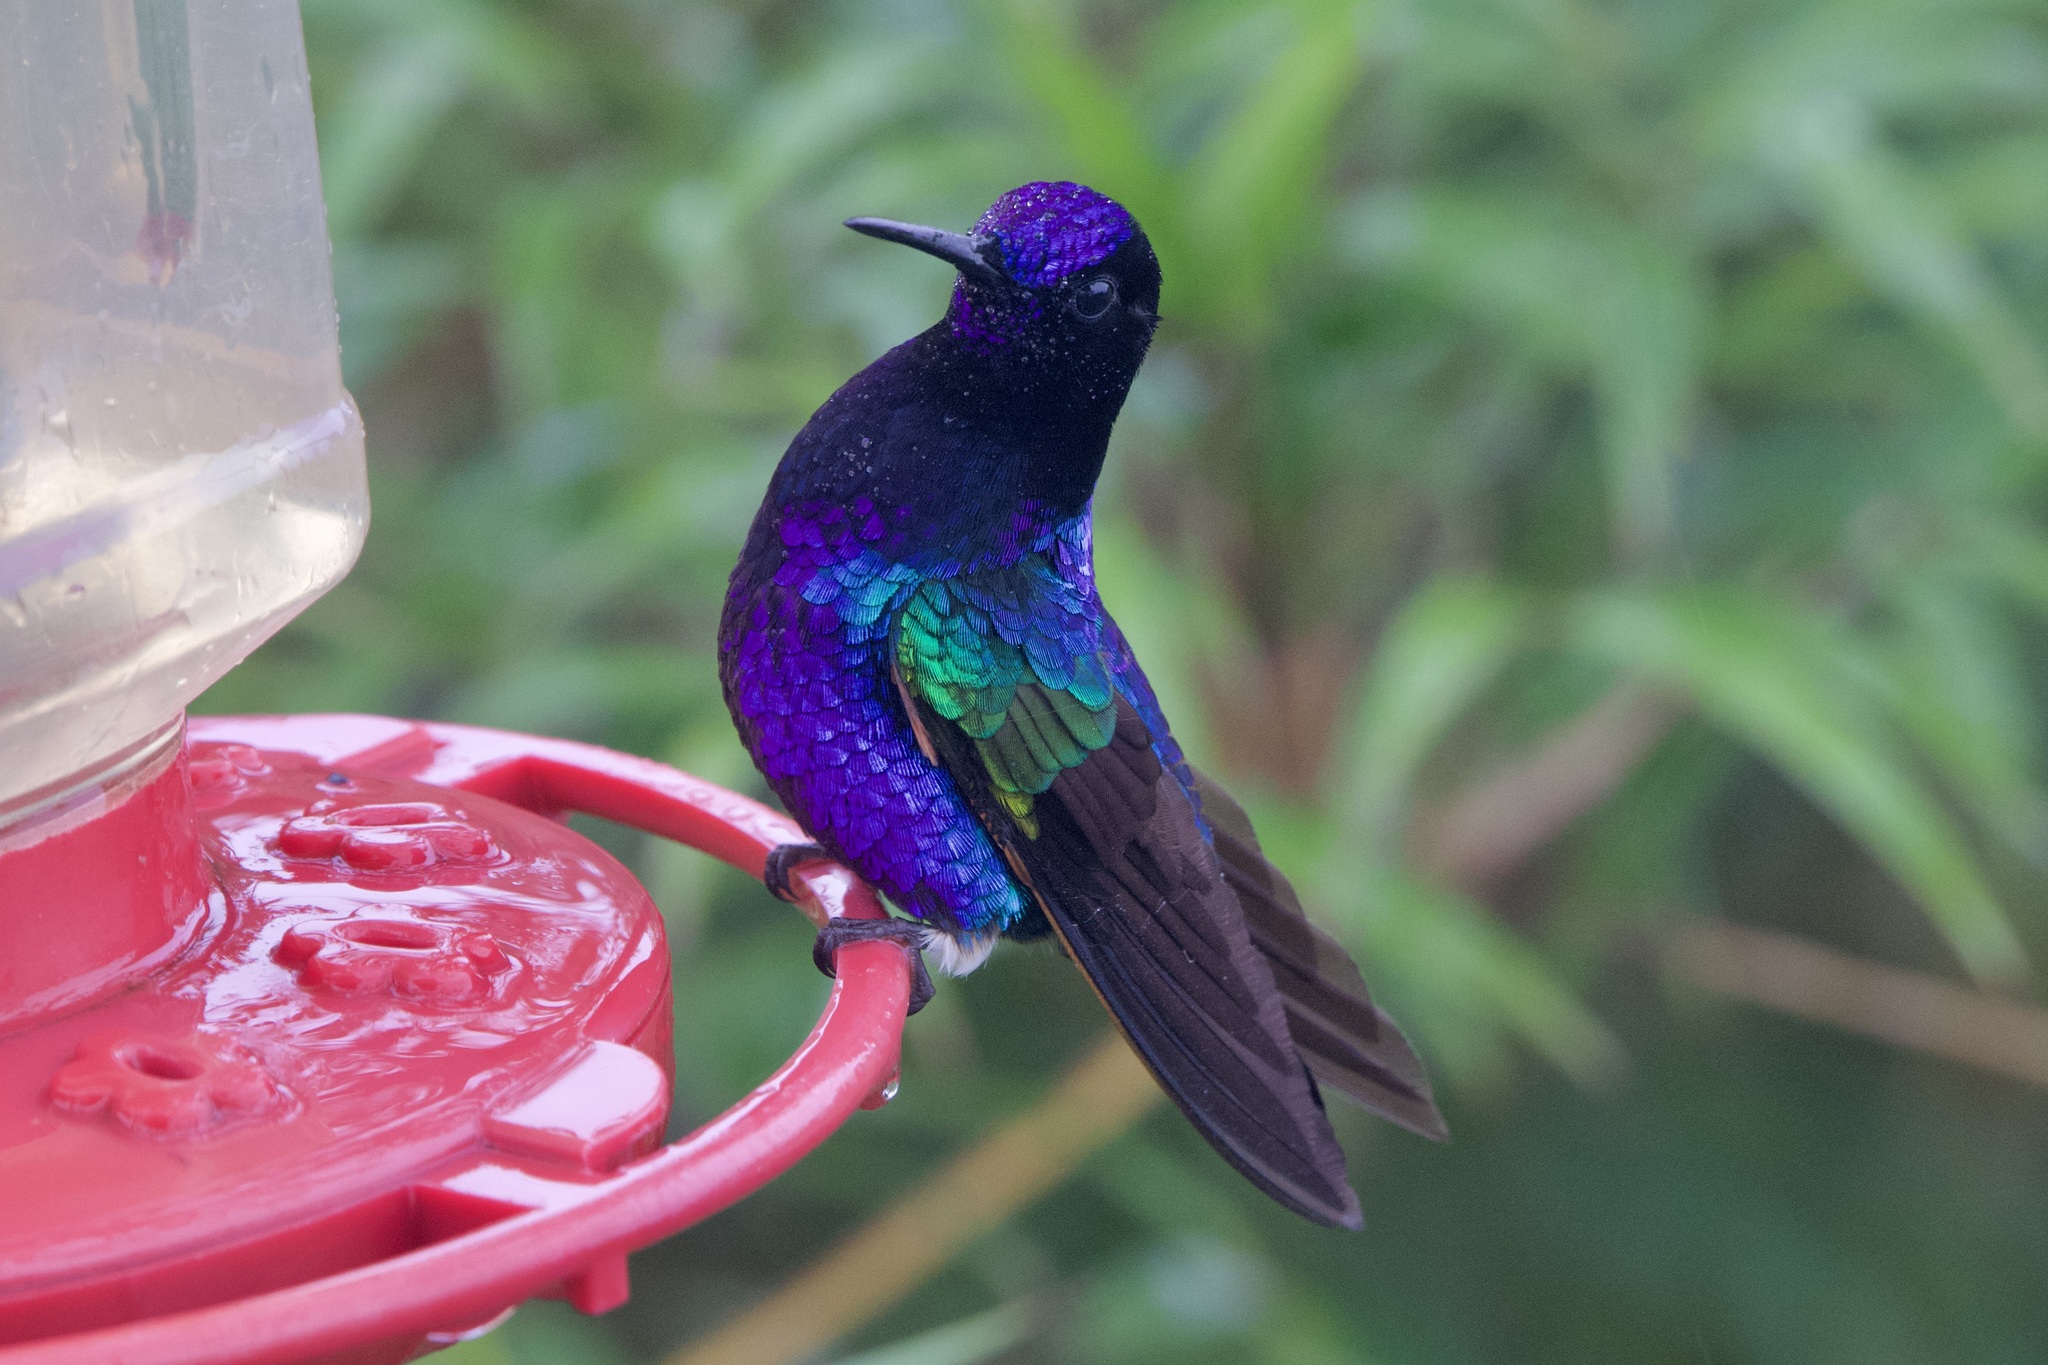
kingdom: Animalia
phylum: Chordata
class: Aves
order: Apodiformes
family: Trochilidae
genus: Boissonneaua
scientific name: Boissonneaua jardini
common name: Velvet-purple coronet
